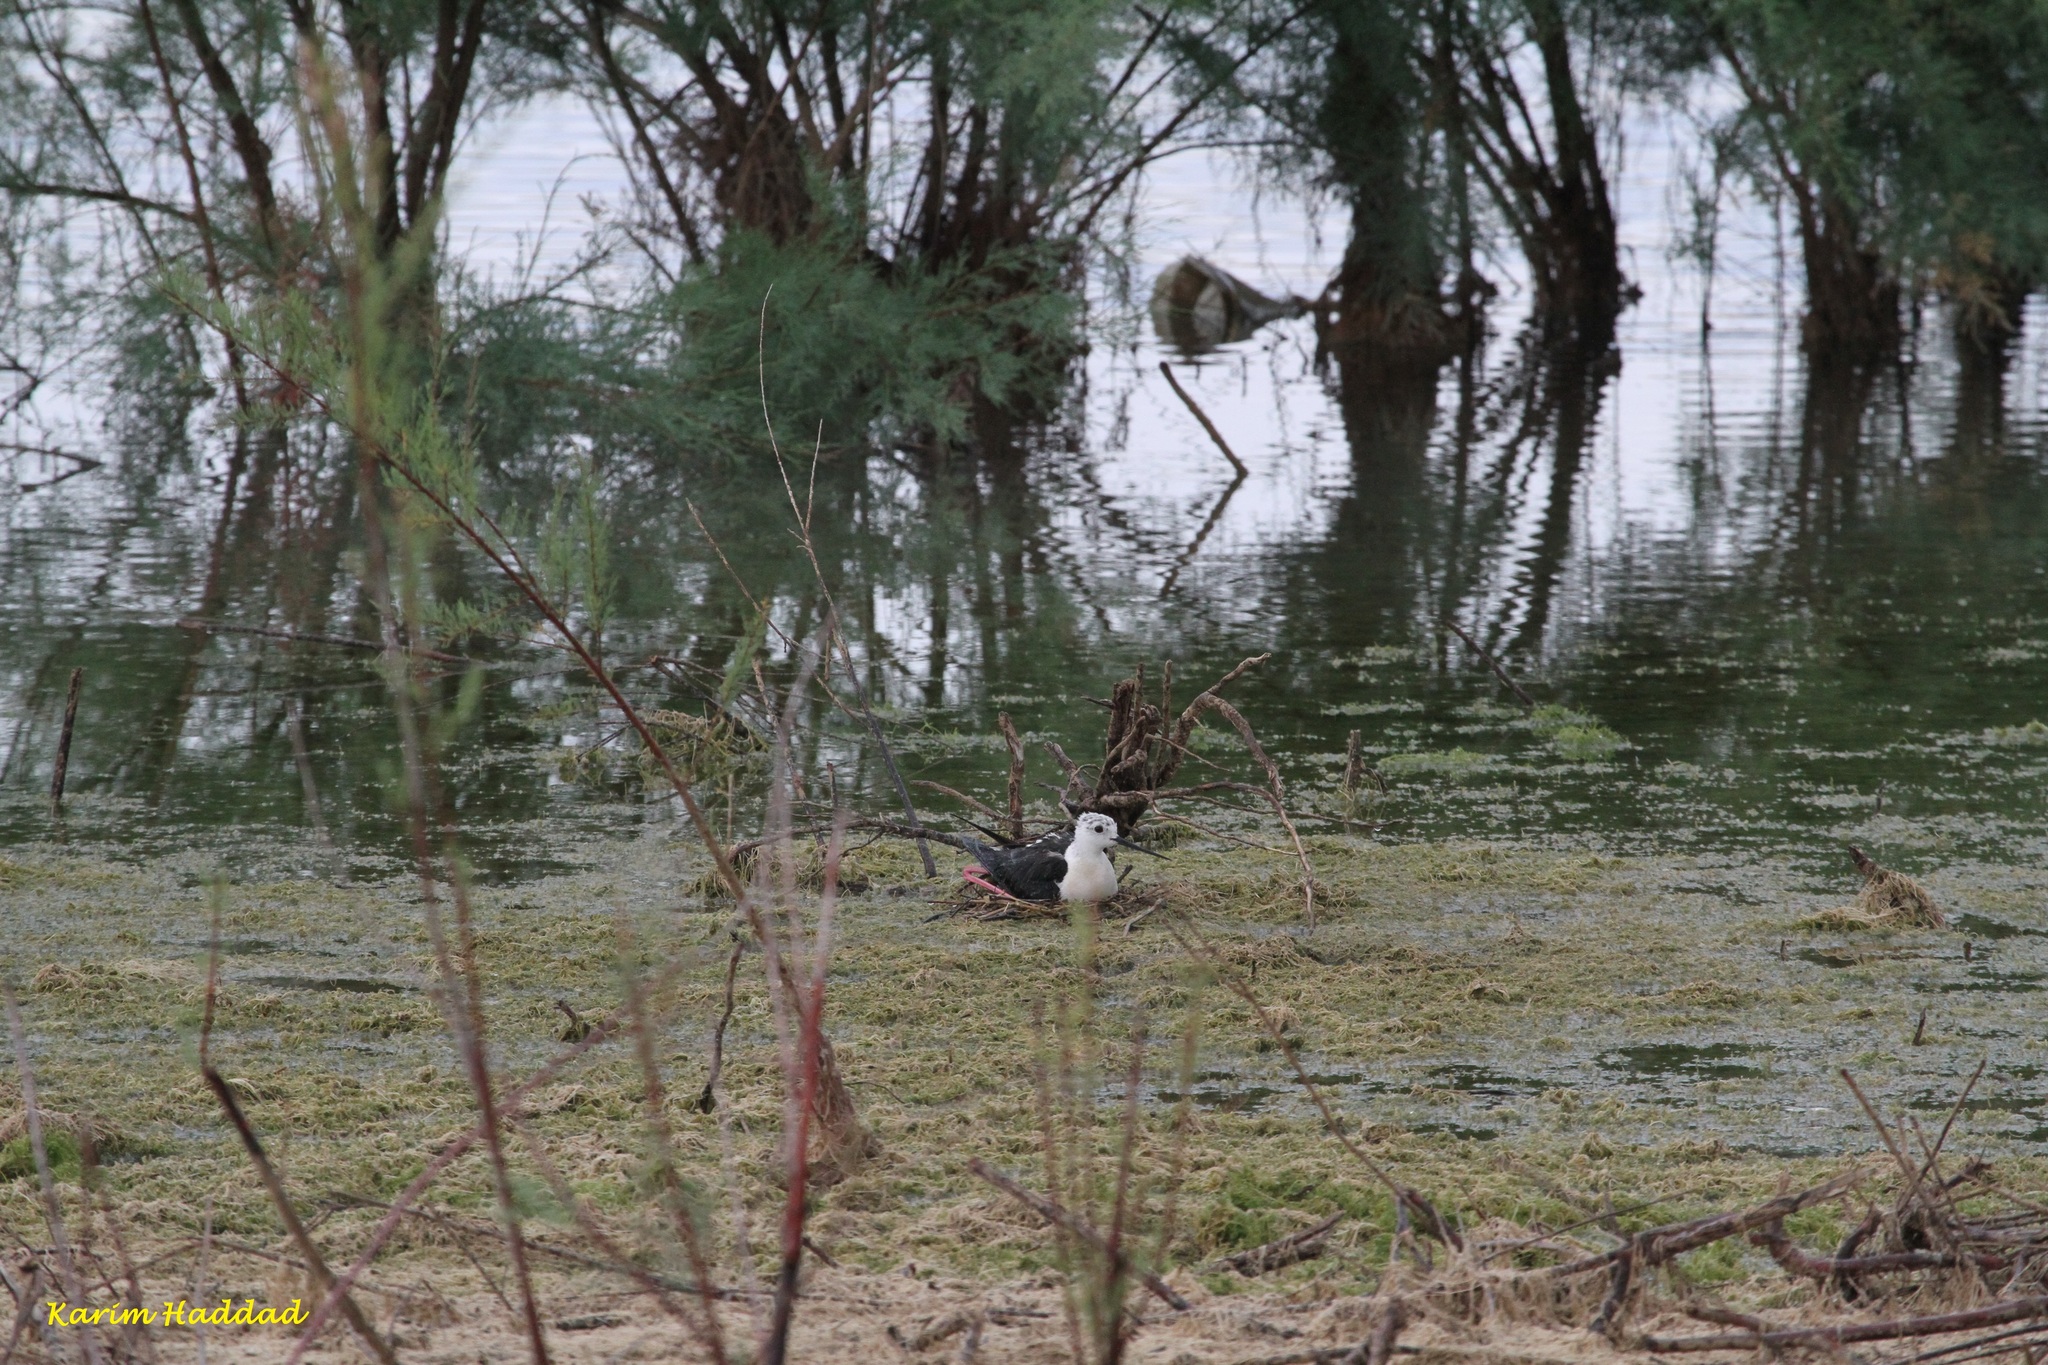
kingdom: Animalia
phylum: Chordata
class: Aves
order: Charadriiformes
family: Recurvirostridae
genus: Himantopus
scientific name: Himantopus himantopus
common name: Black-winged stilt
